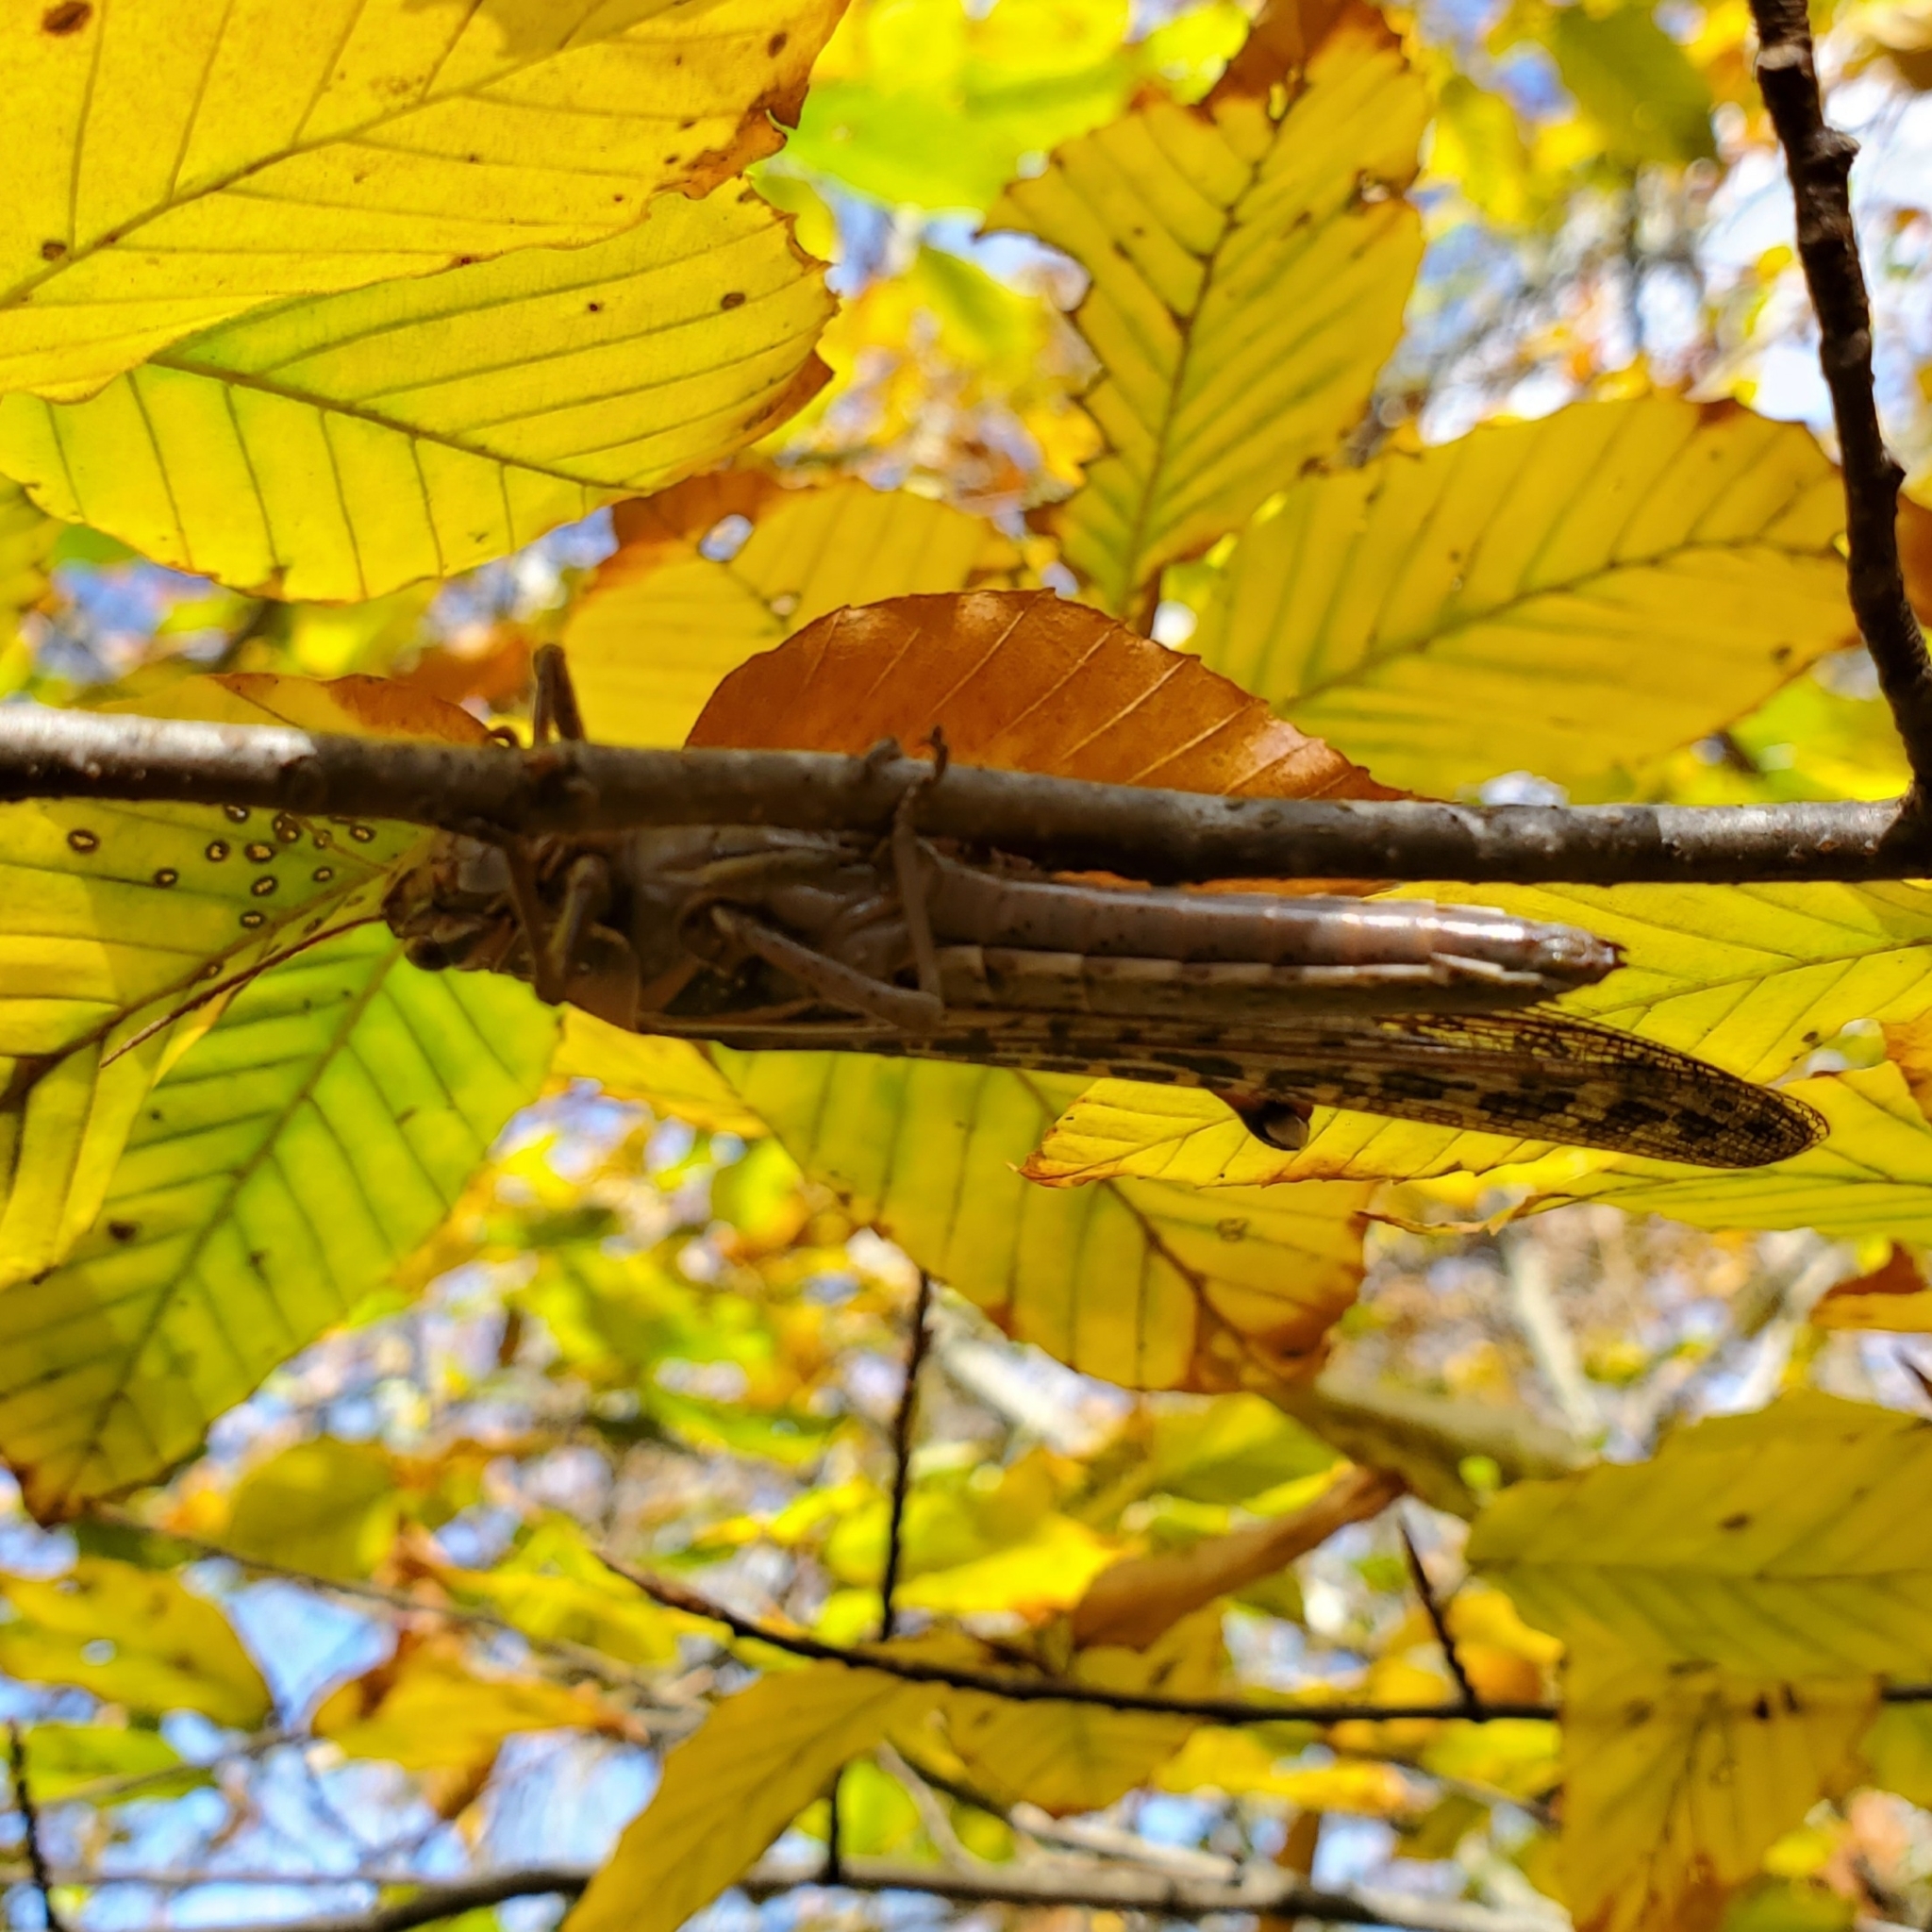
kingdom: Animalia
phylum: Arthropoda
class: Insecta
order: Orthoptera
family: Acrididae
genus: Schistocerca
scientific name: Schistocerca americana
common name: American bird locust
